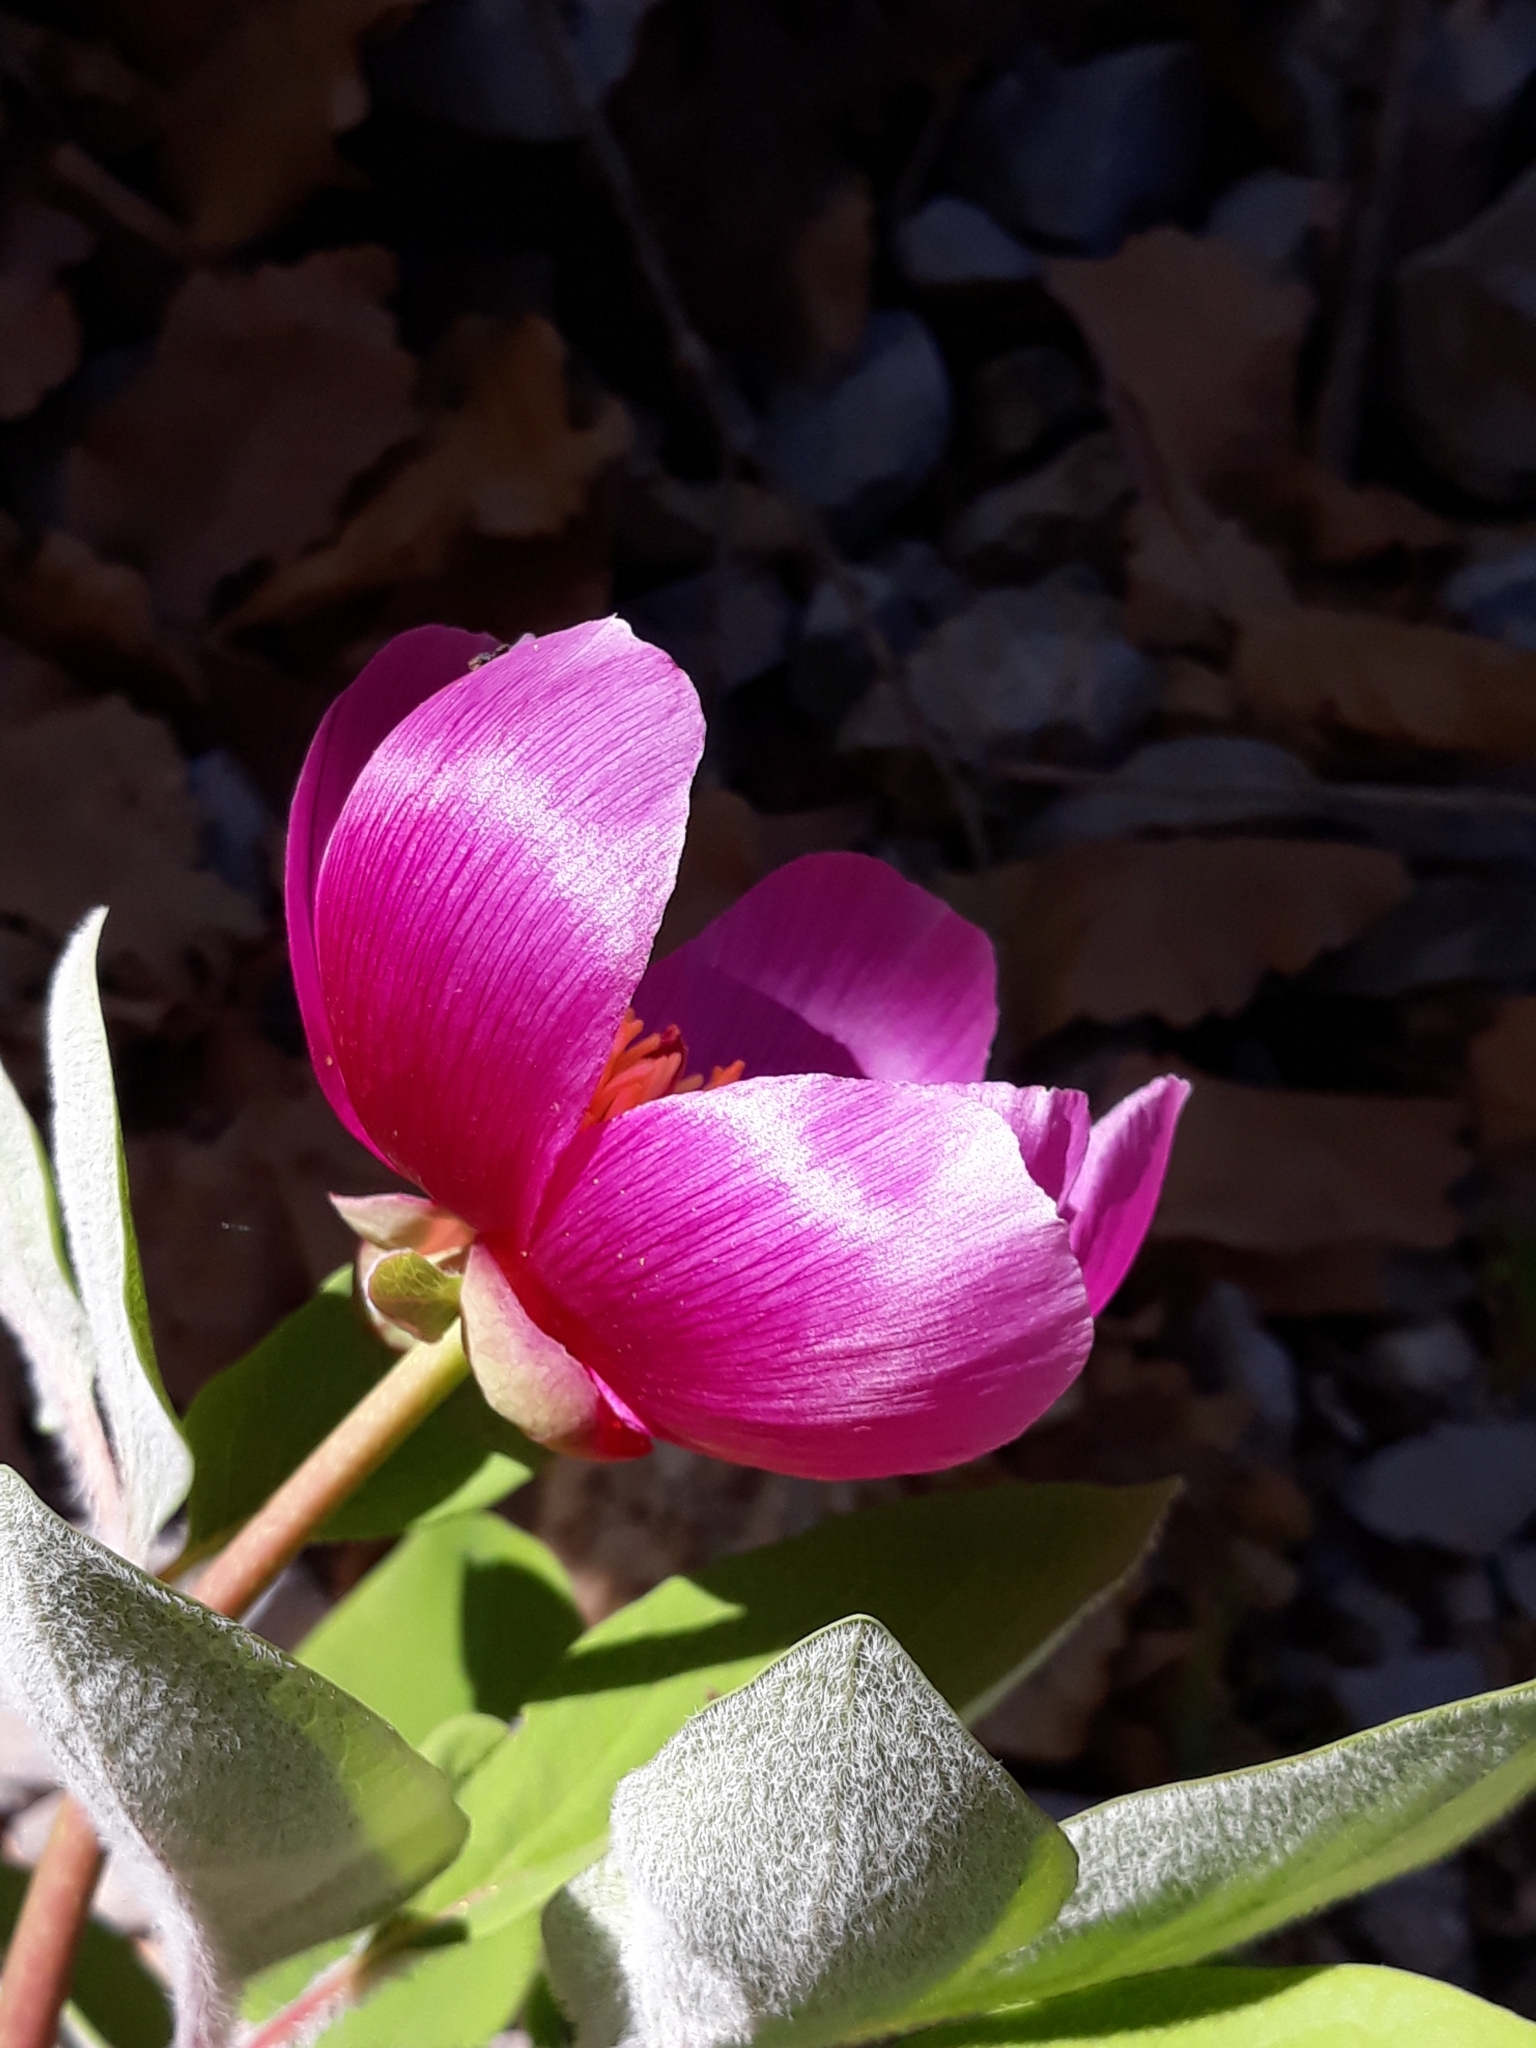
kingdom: Plantae
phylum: Tracheophyta
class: Magnoliopsida
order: Saxifragales
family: Paeoniaceae
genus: Paeonia
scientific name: Paeonia algeriensis
